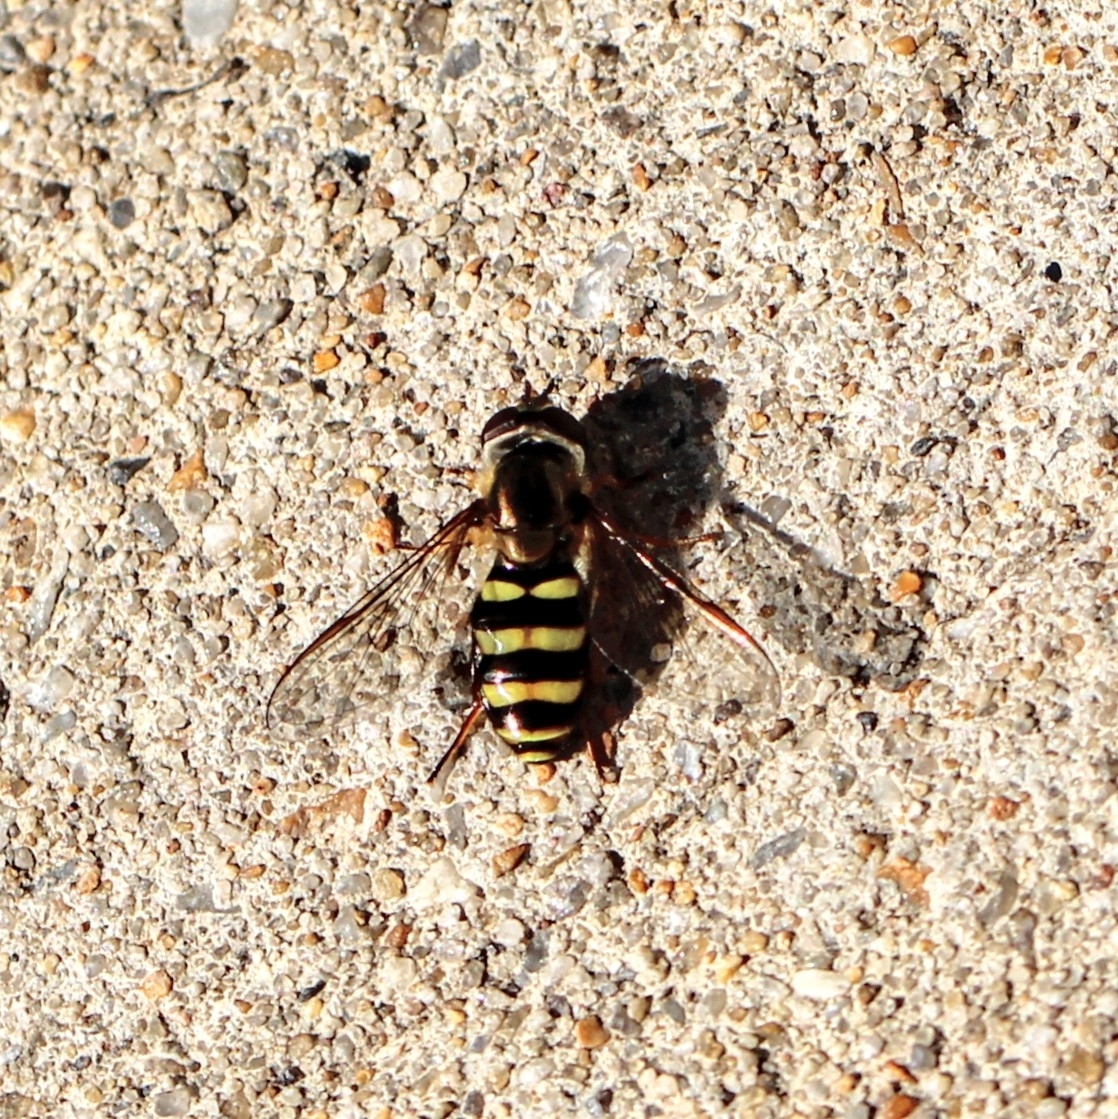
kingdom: Animalia
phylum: Arthropoda
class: Insecta
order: Diptera
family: Syrphidae
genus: Eupeodes
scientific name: Eupeodes
